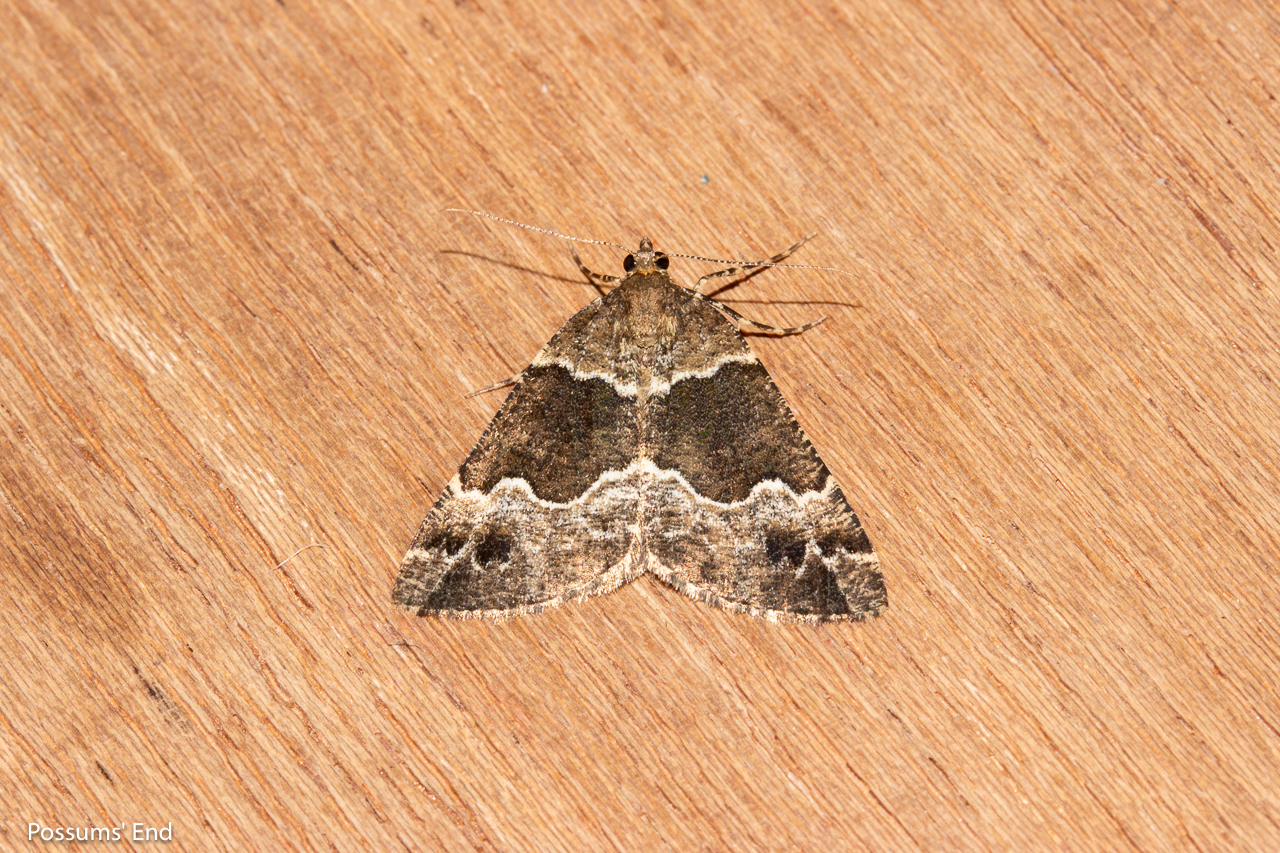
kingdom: Animalia
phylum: Arthropoda
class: Insecta
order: Lepidoptera
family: Geometridae
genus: Pseudocoremia
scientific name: Pseudocoremia
